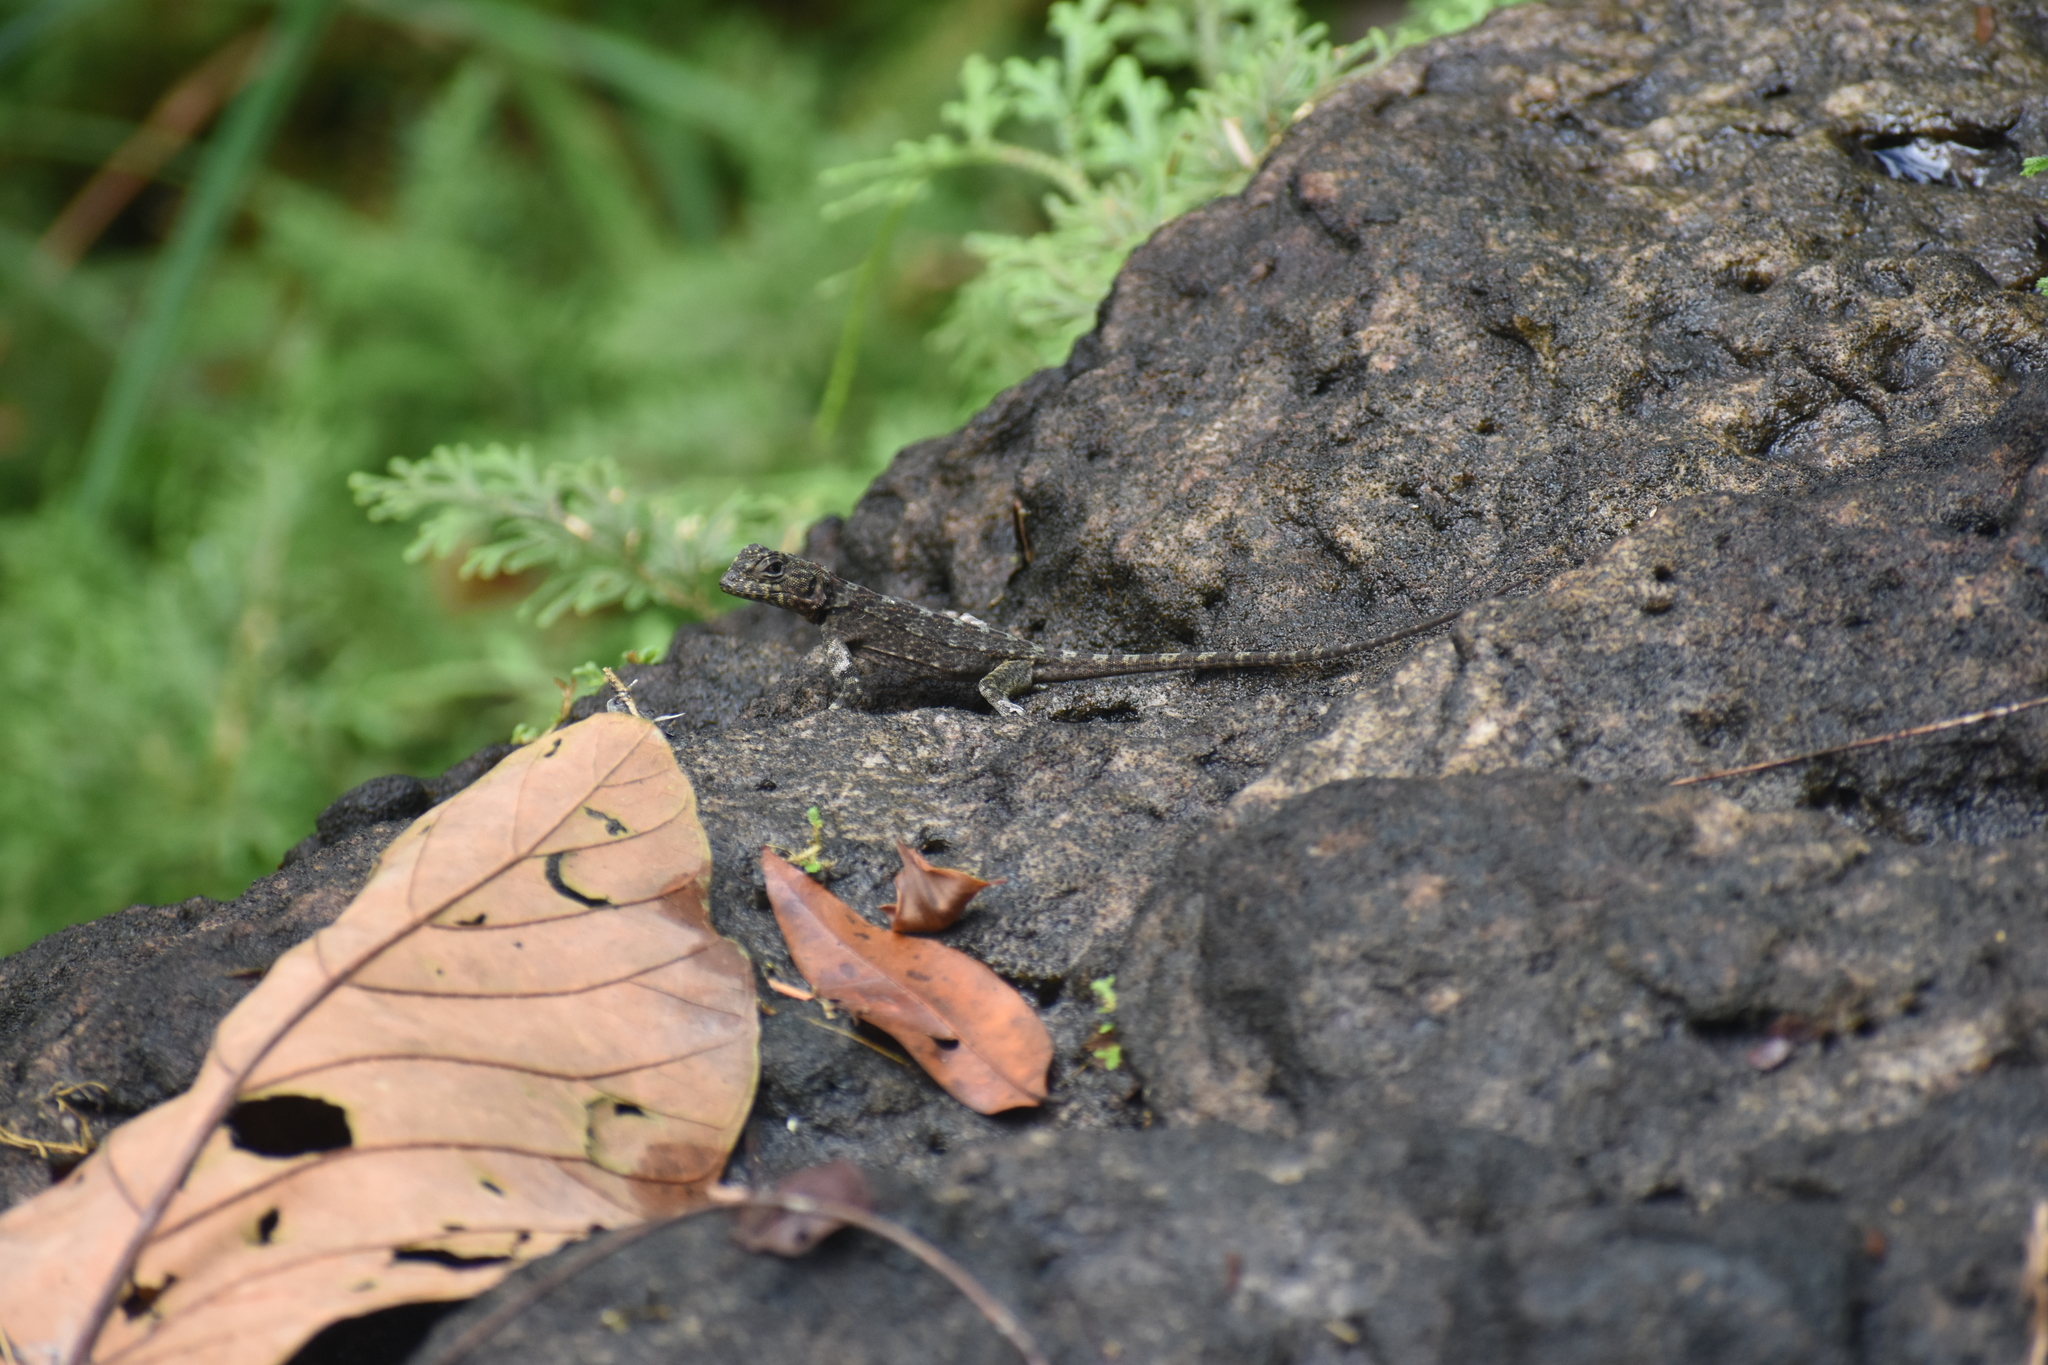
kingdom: Animalia
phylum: Chordata
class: Squamata
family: Tropiduridae
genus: Plica
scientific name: Plica plica
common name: Tree runner
